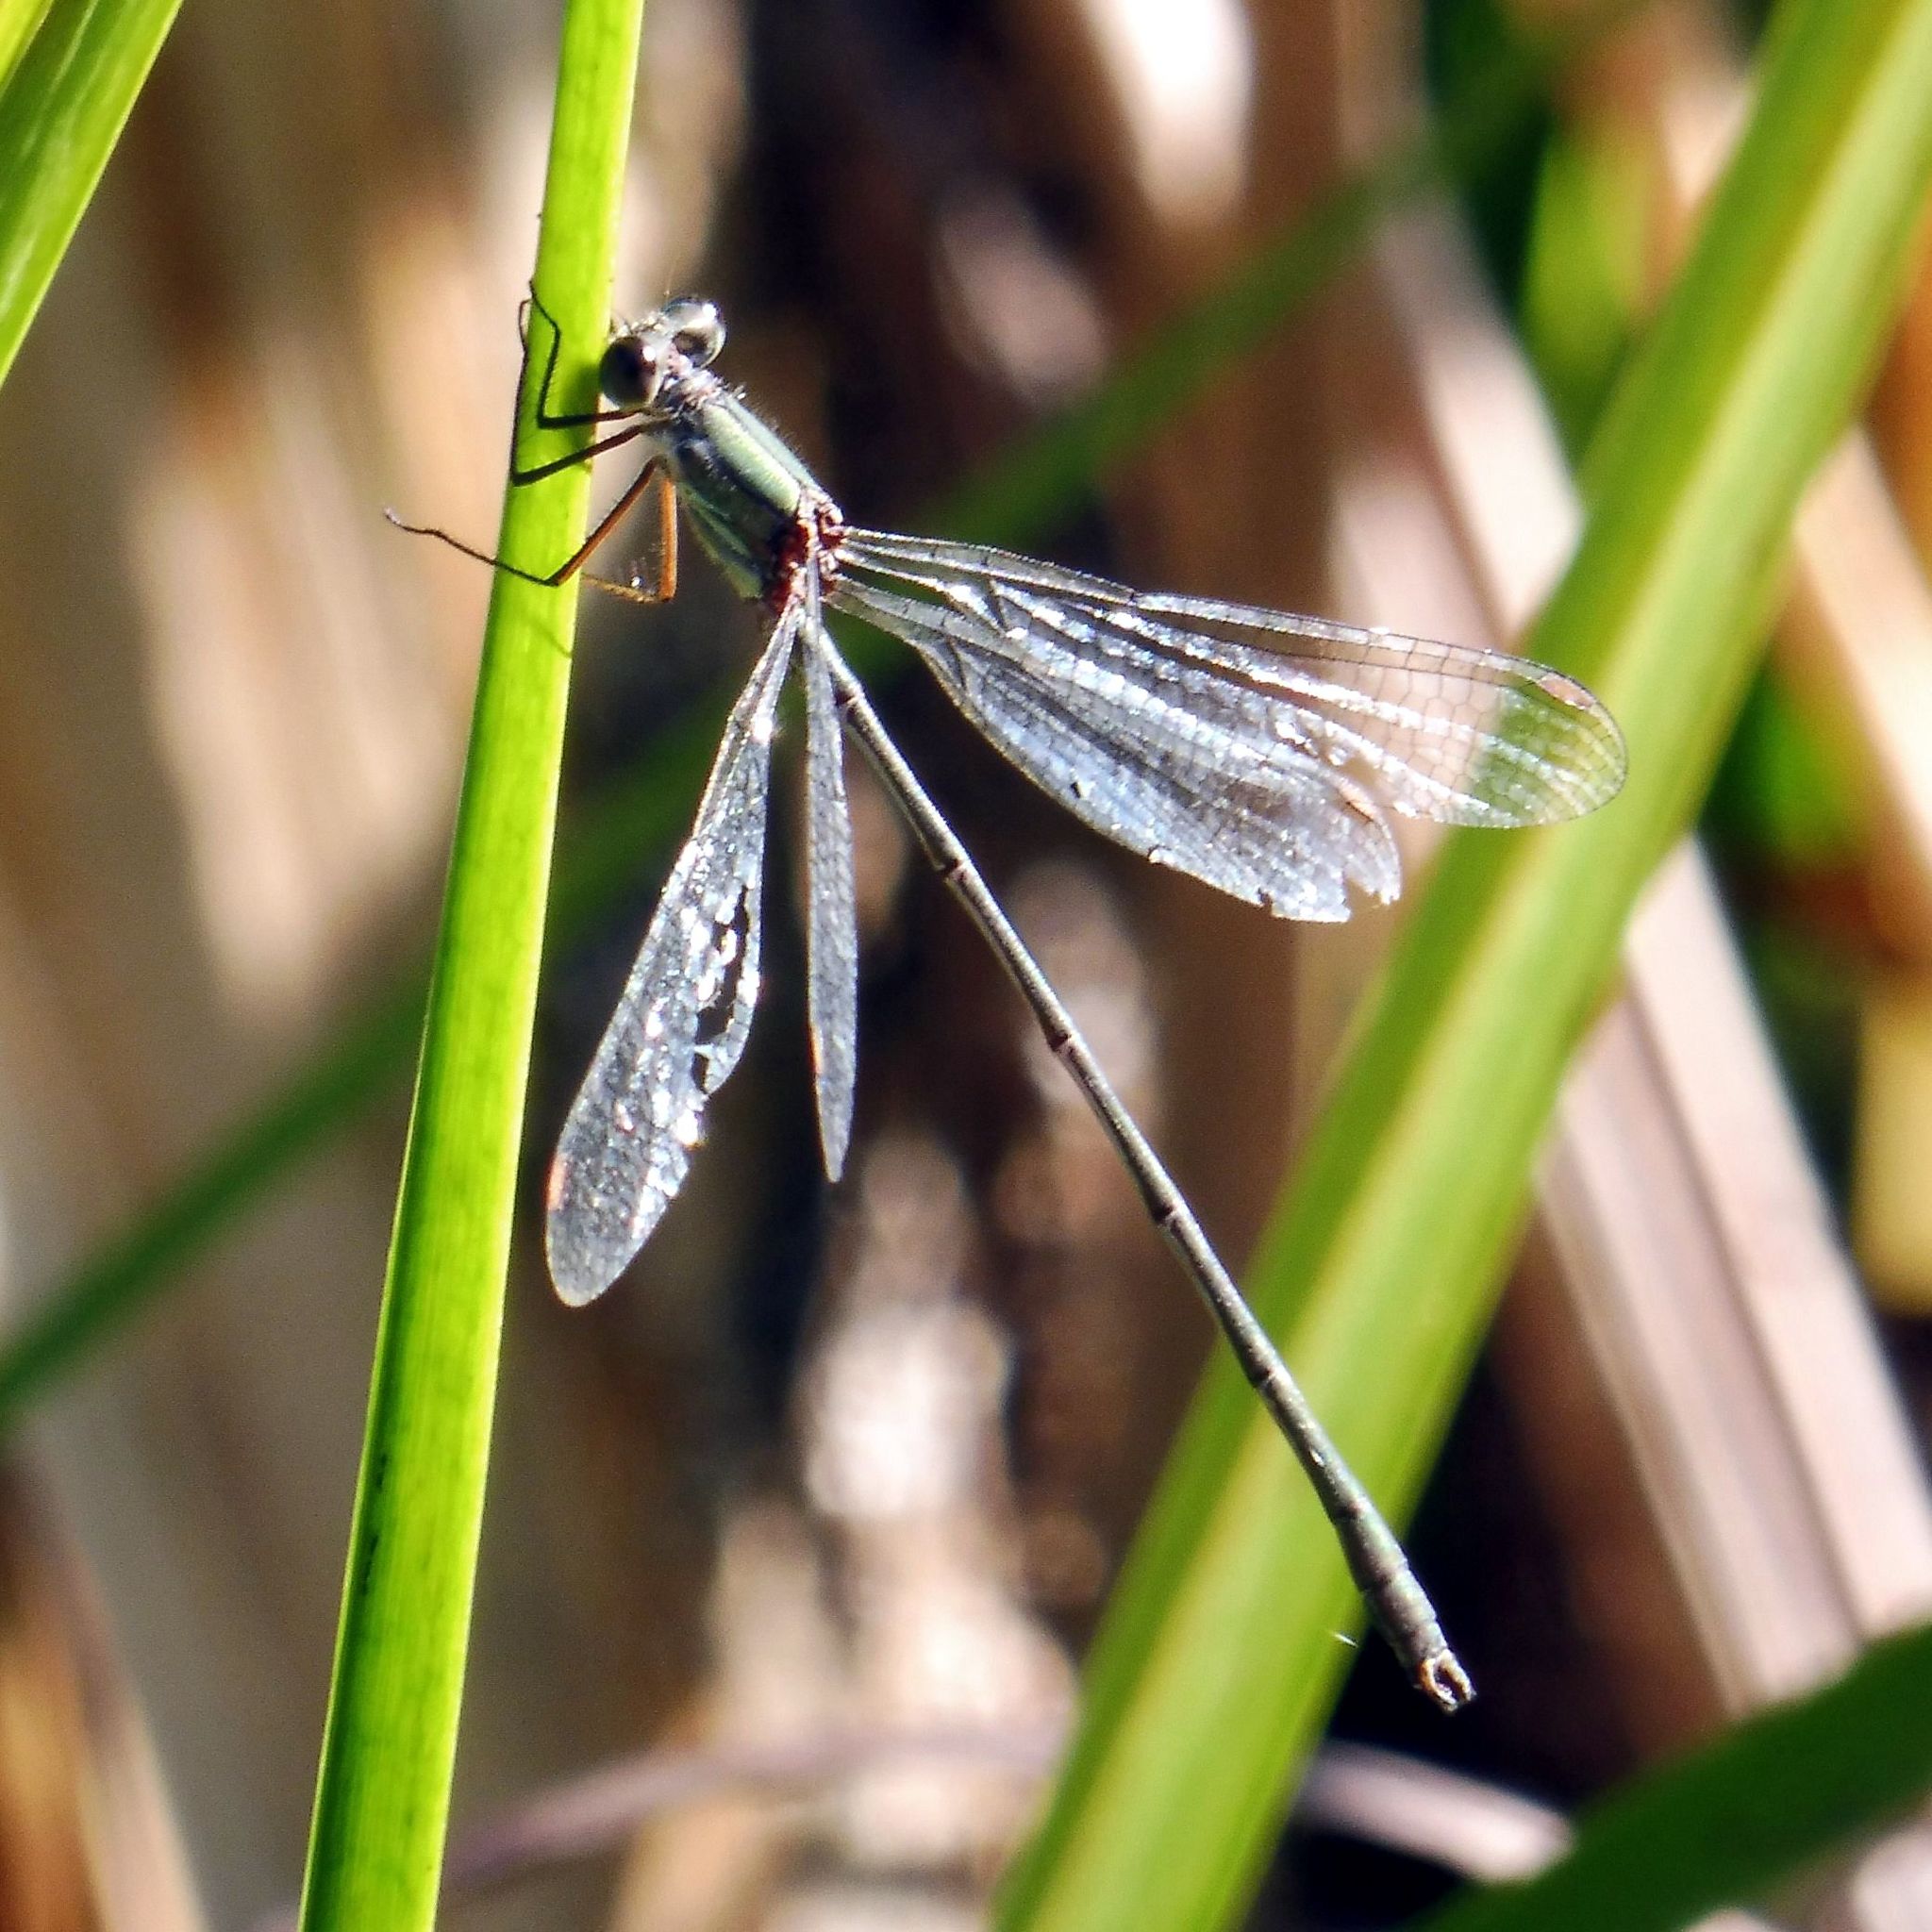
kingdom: Animalia
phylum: Arthropoda
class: Insecta
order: Odonata
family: Lestidae
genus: Chalcolestes
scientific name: Chalcolestes viridis
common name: Green emerald damselfly
